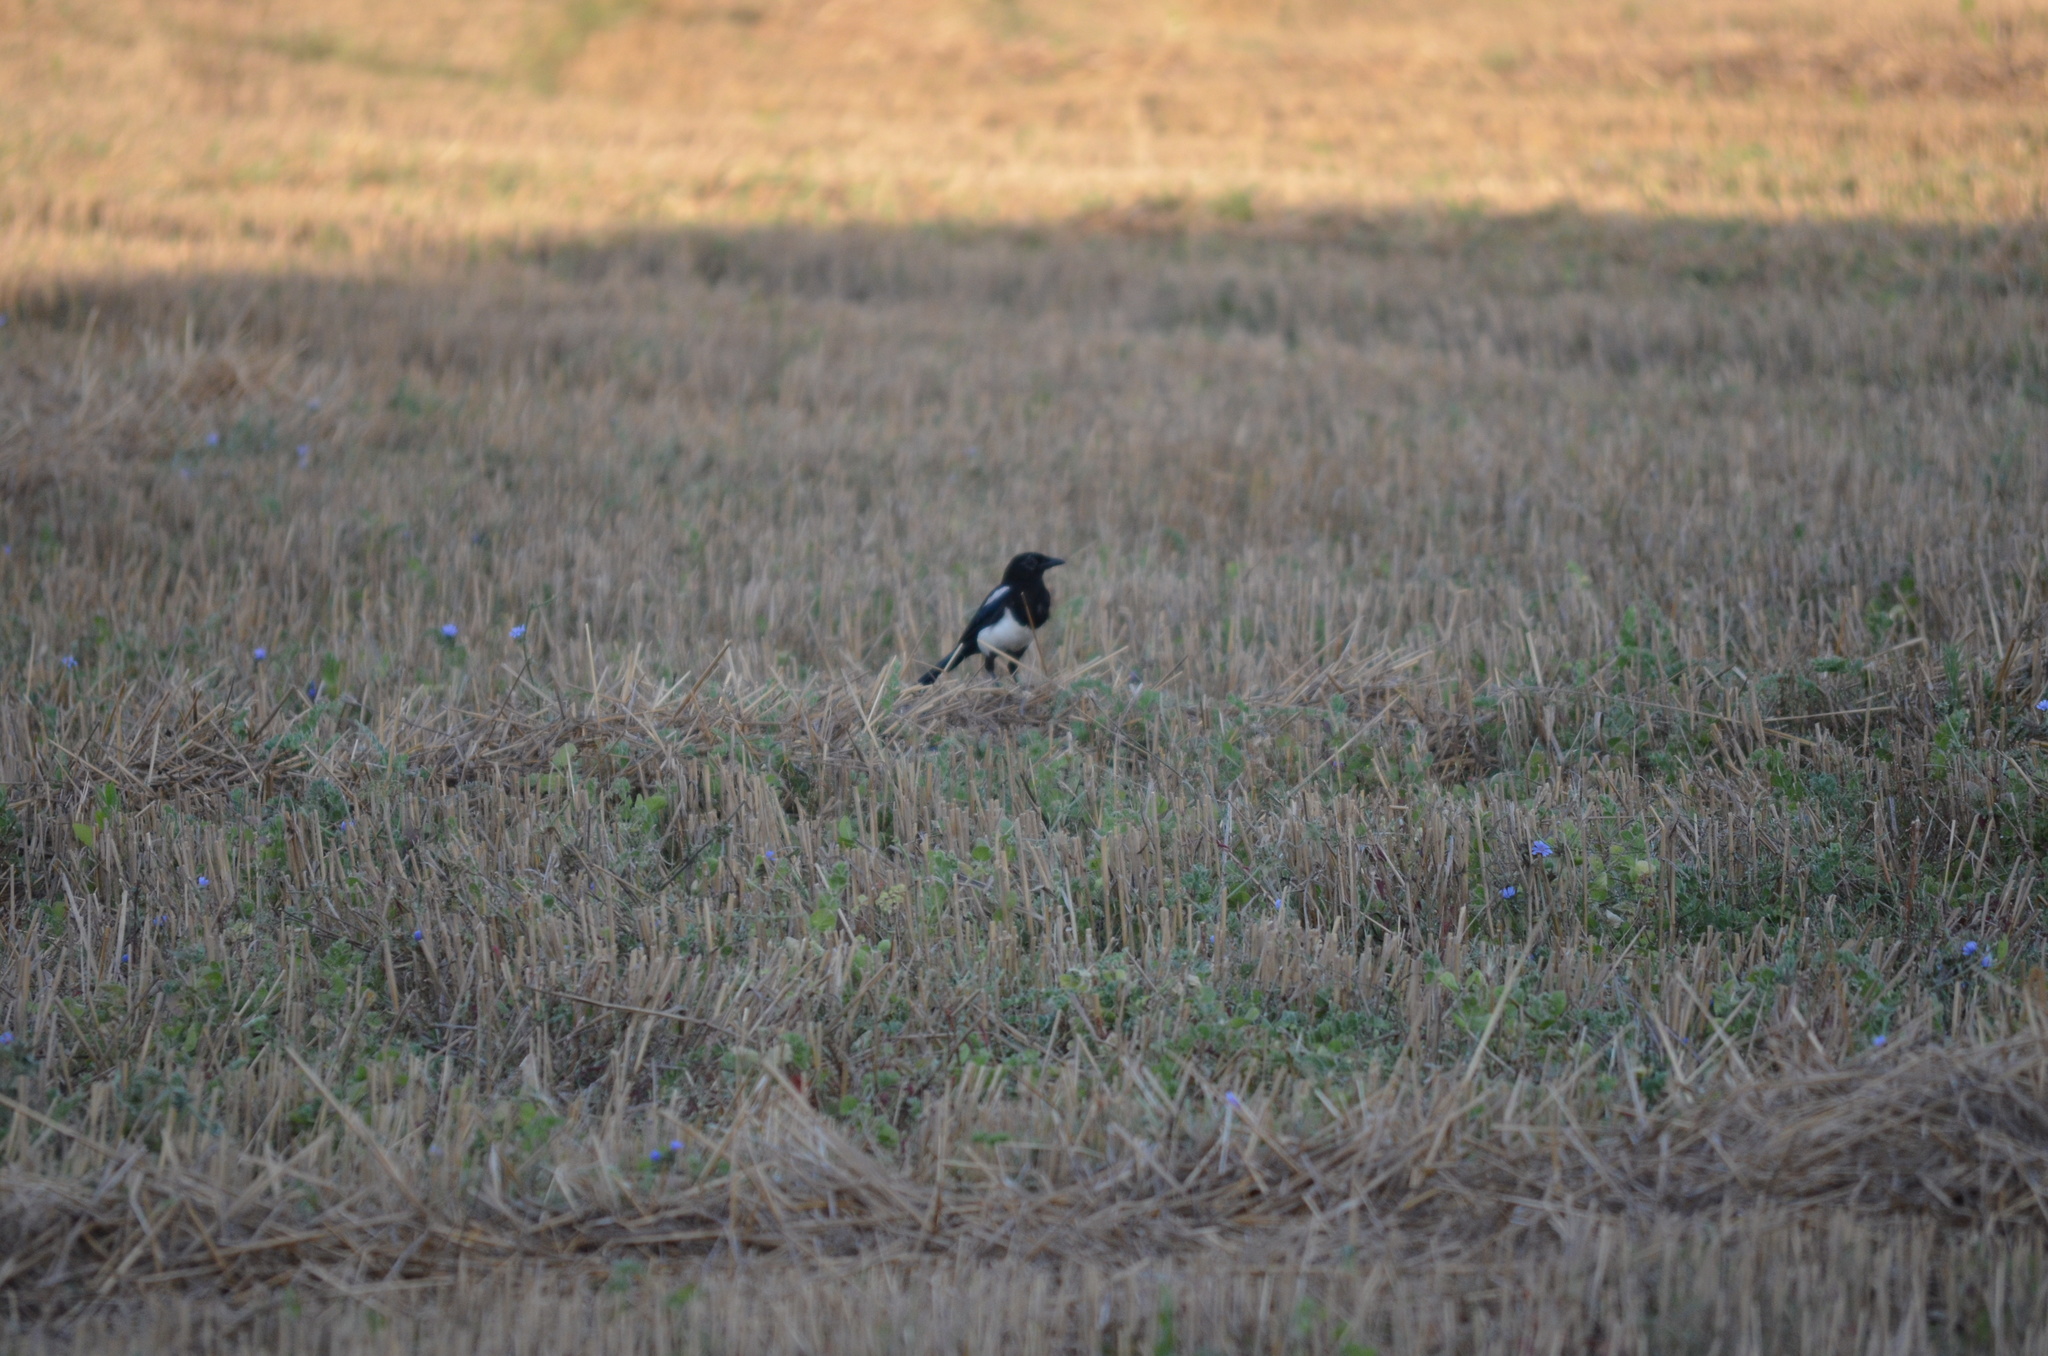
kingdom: Animalia
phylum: Chordata
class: Aves
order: Passeriformes
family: Corvidae
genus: Pica
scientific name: Pica pica
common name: Eurasian magpie
